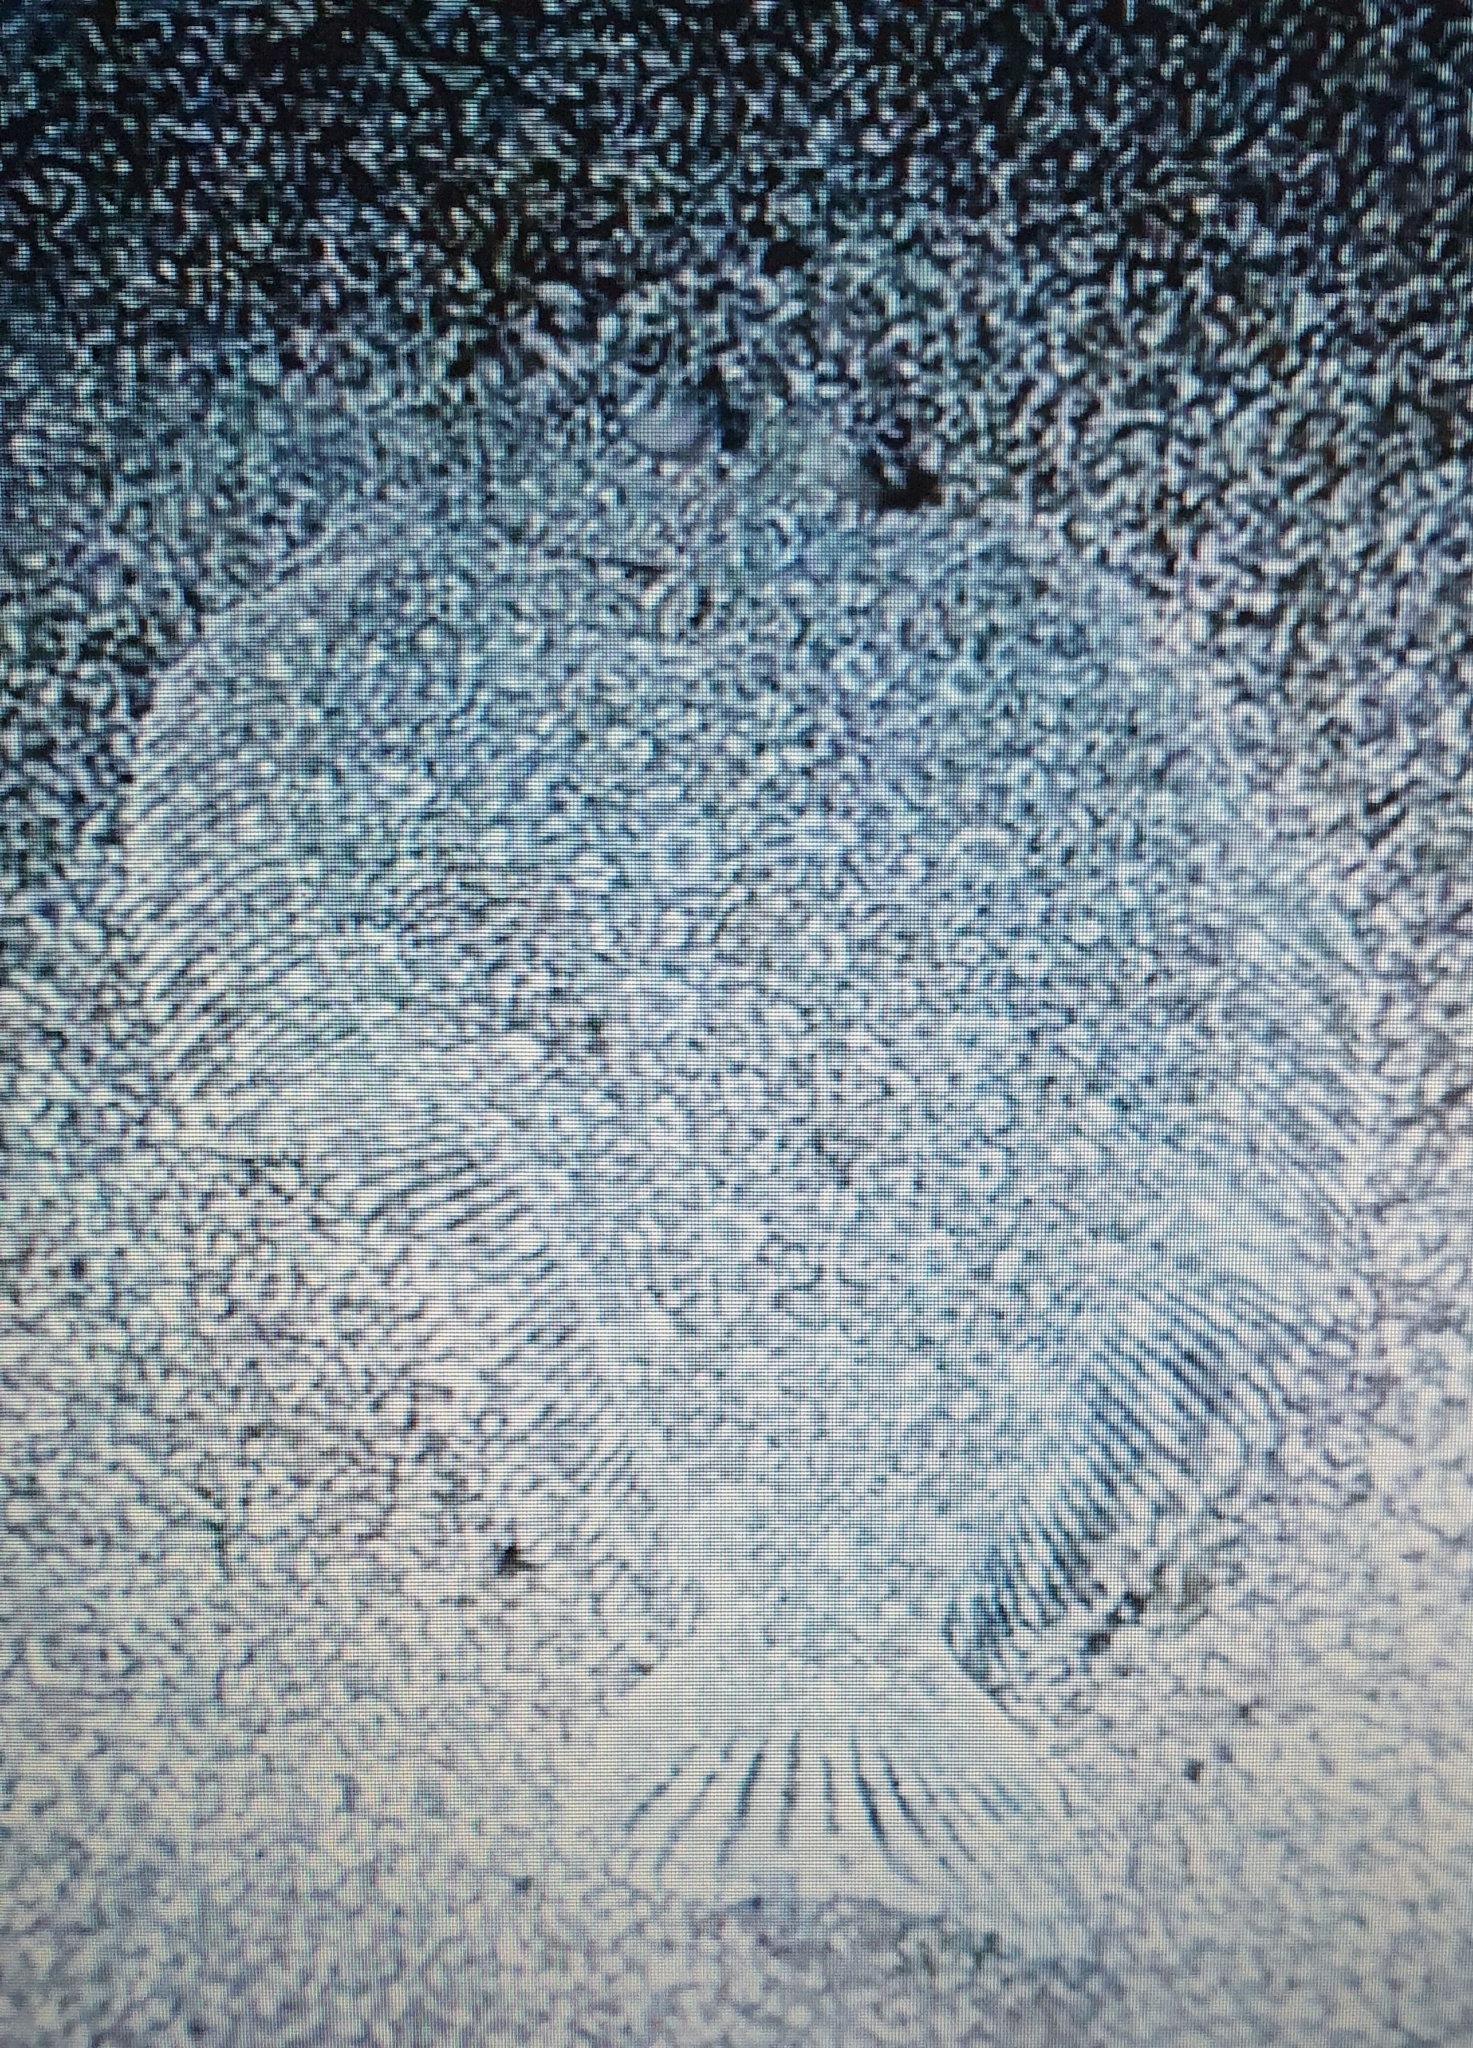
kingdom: Animalia
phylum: Chordata
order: Pleuronectiformes
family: Bothidae
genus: Bothus
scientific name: Bothus podas
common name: Wide-eyed flounder
